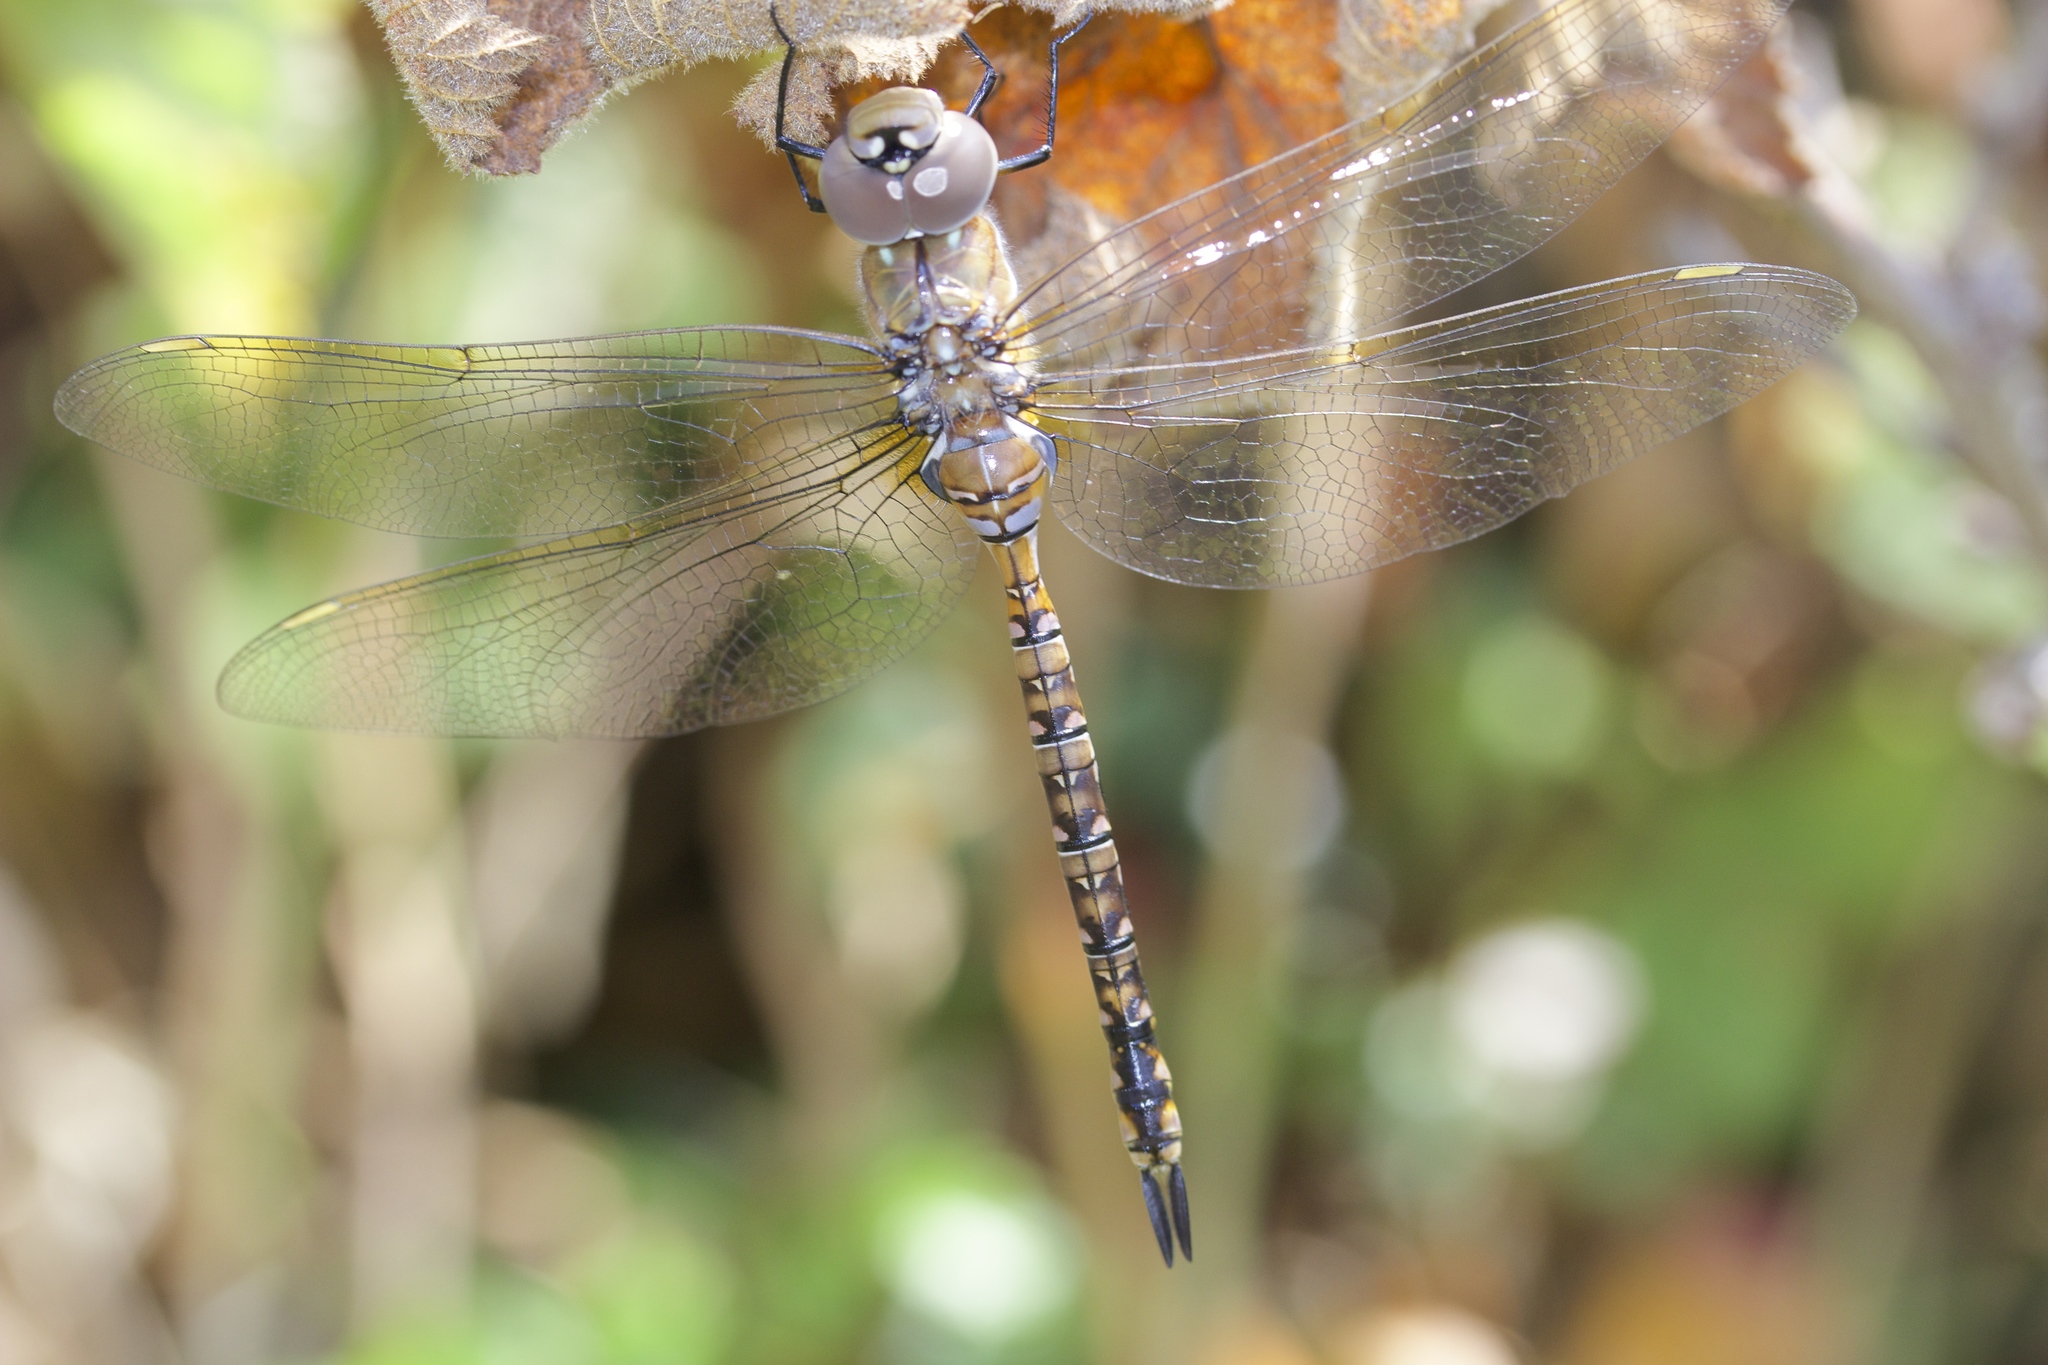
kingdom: Animalia
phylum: Arthropoda
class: Insecta
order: Odonata
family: Aeshnidae
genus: Rhionaeschna
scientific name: Rhionaeschna multicolor
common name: Blue-eyed darner
